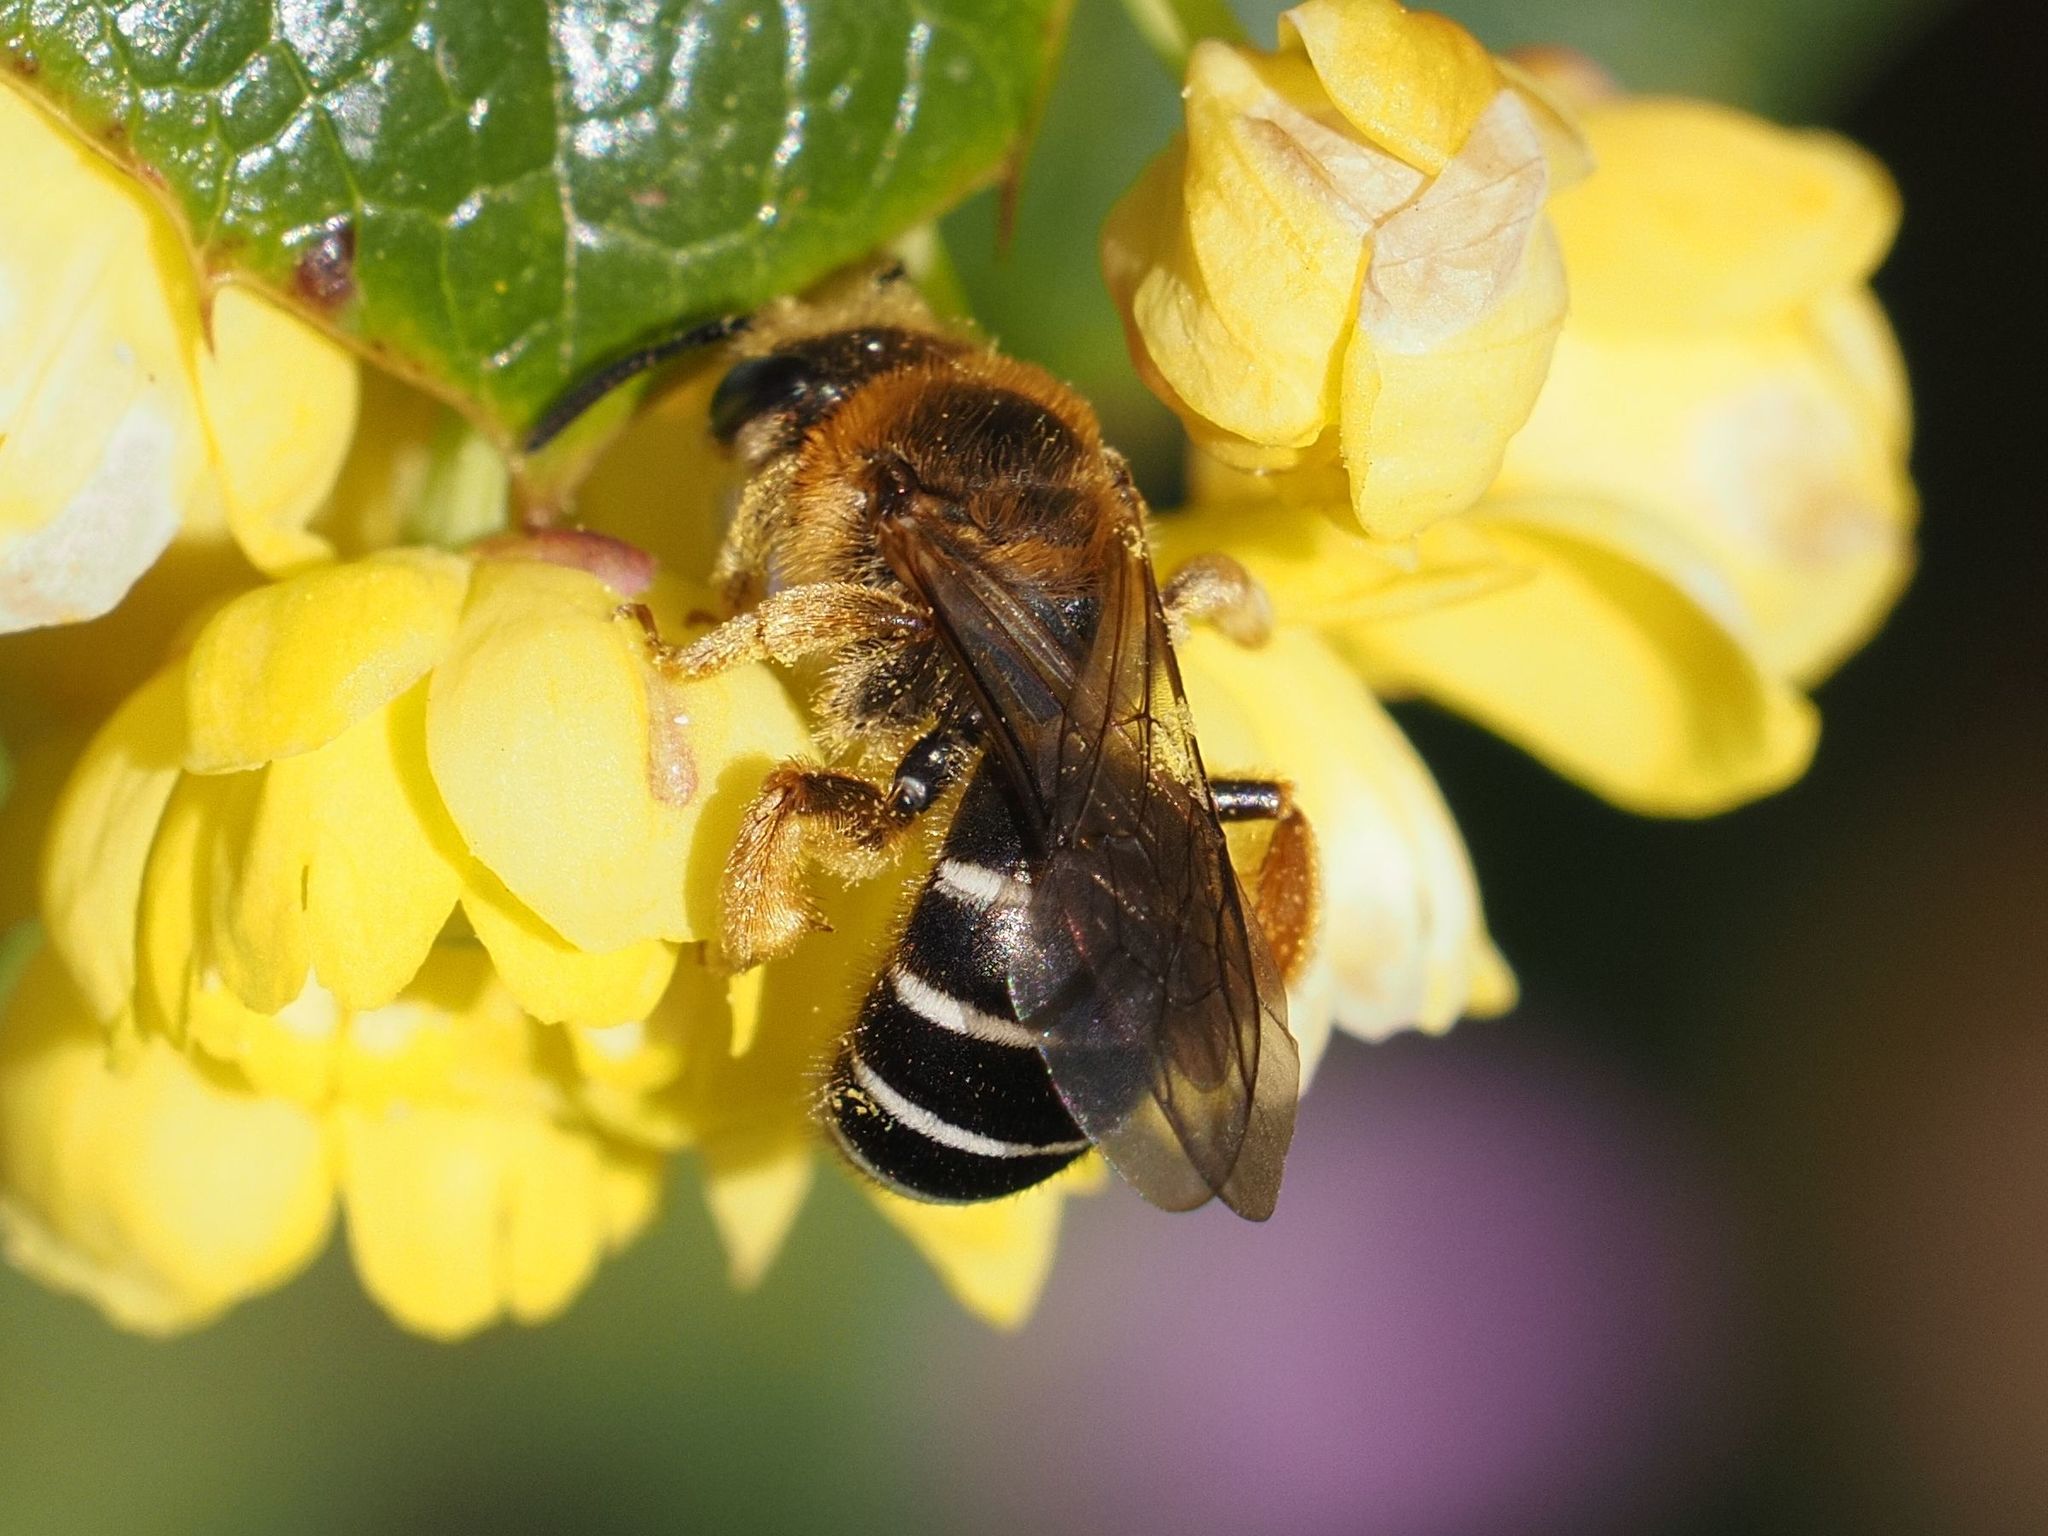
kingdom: Animalia
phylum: Arthropoda
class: Insecta
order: Hymenoptera
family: Halictidae
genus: Halictus
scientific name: Halictus rubicundus
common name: Orange-legged furrow bee
